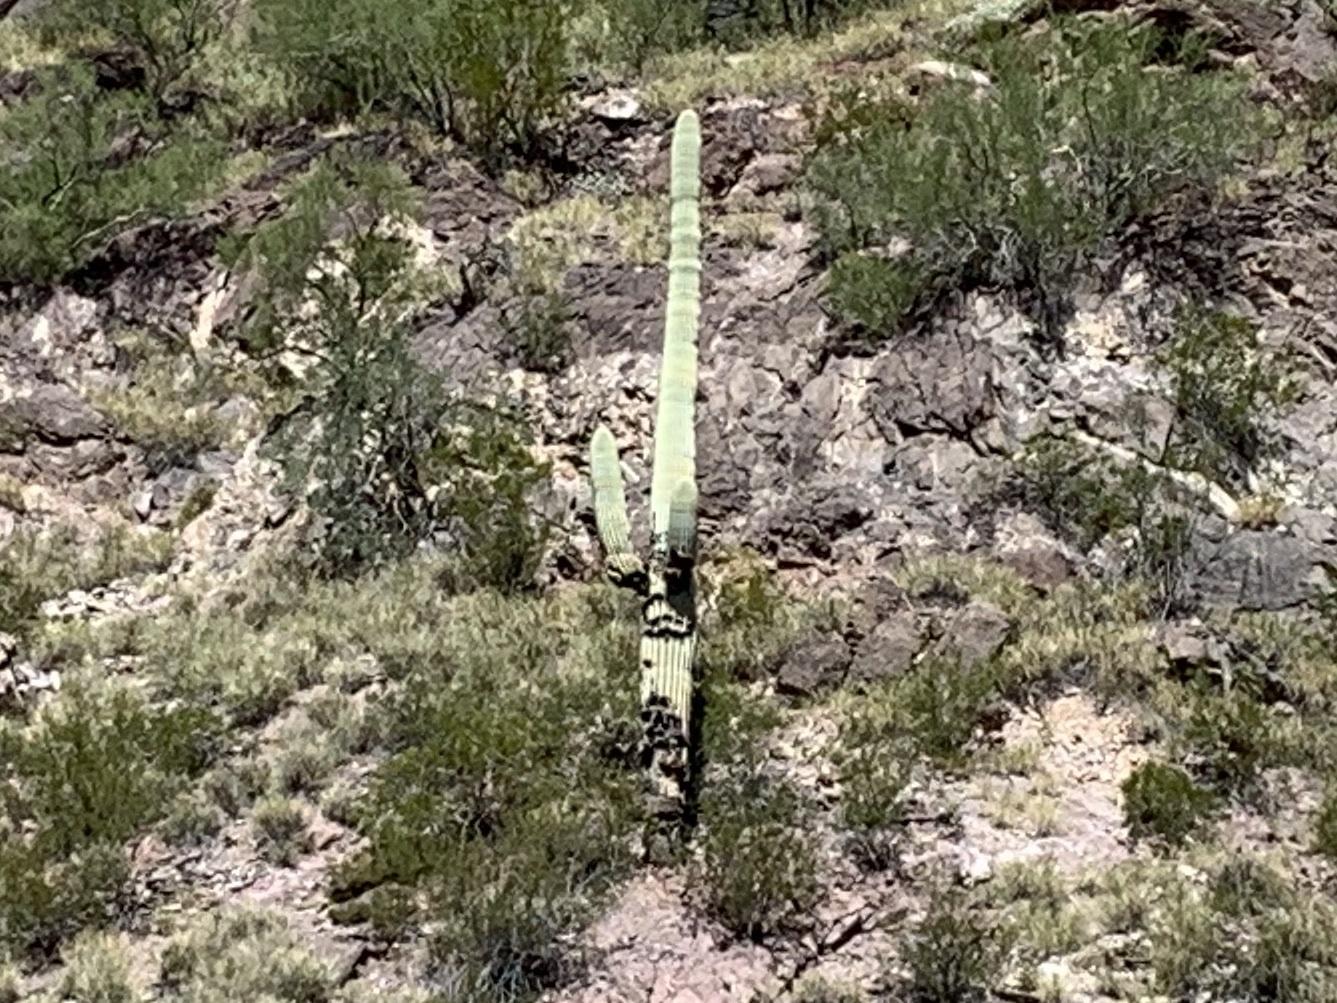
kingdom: Plantae
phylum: Tracheophyta
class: Magnoliopsida
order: Caryophyllales
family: Cactaceae
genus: Carnegiea
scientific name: Carnegiea gigantea
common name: Saguaro
